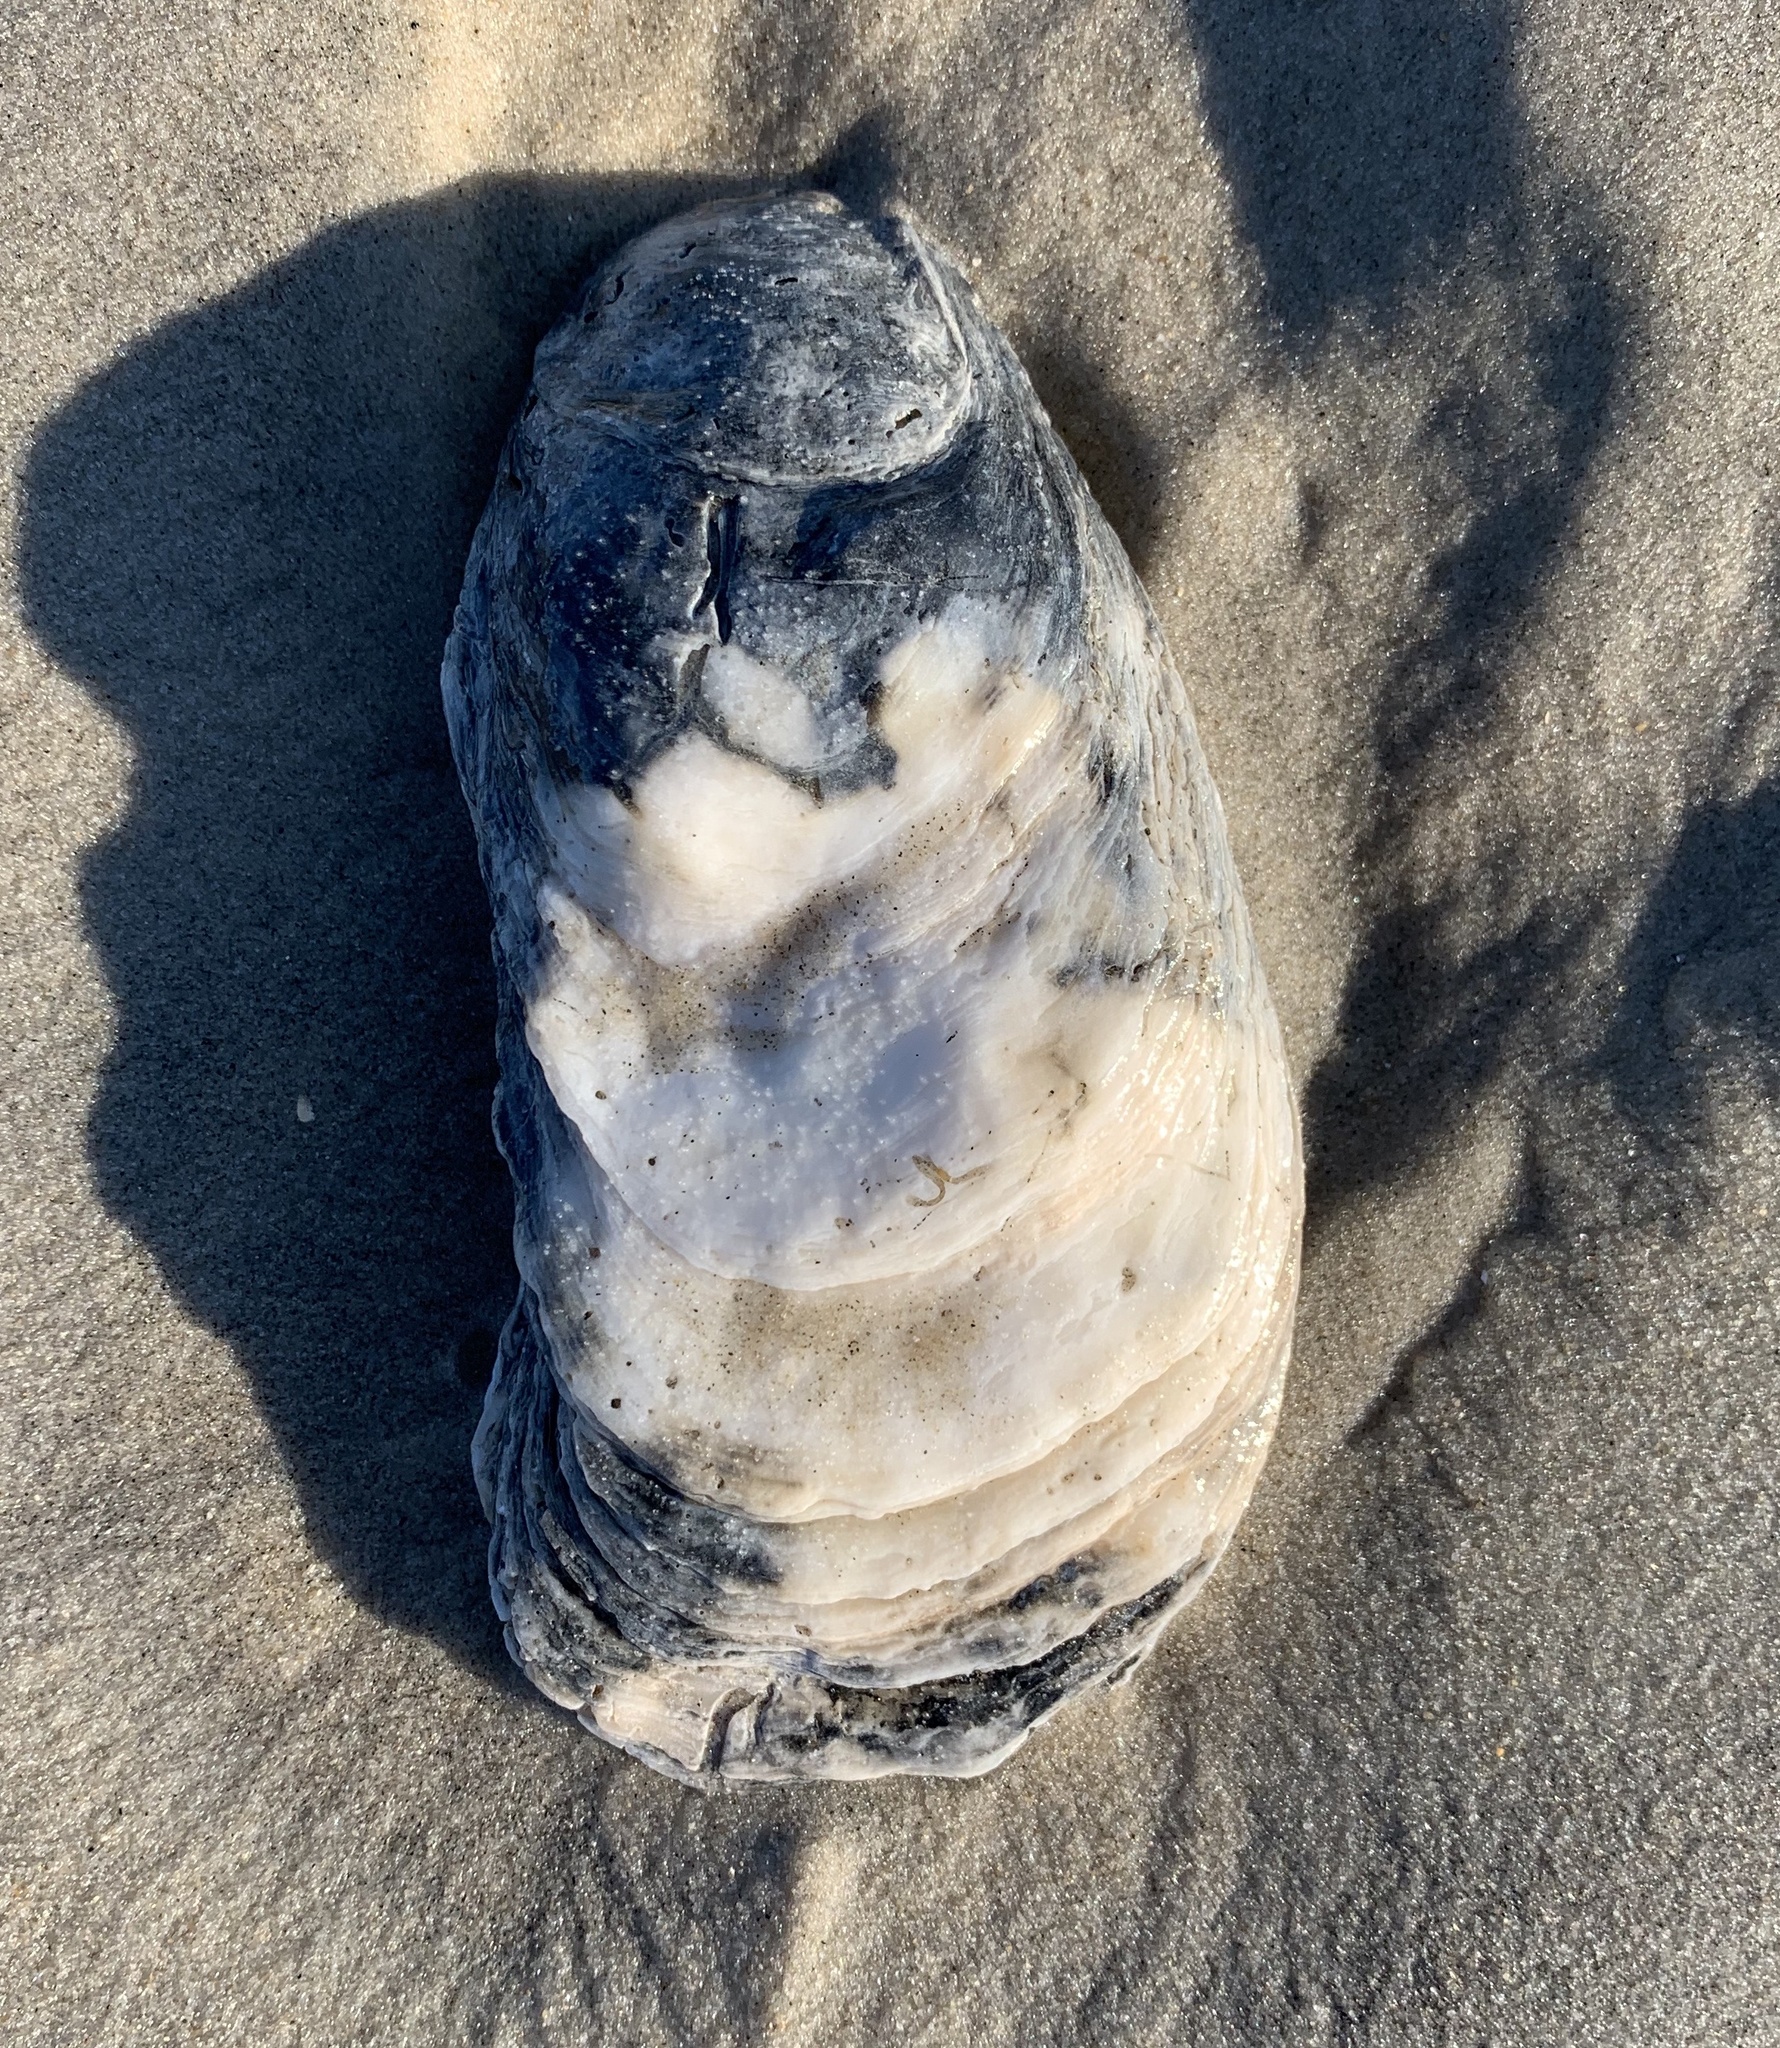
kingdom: Animalia
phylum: Mollusca
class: Bivalvia
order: Ostreida
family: Ostreidae
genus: Crassostrea
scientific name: Crassostrea virginica
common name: American oyster
